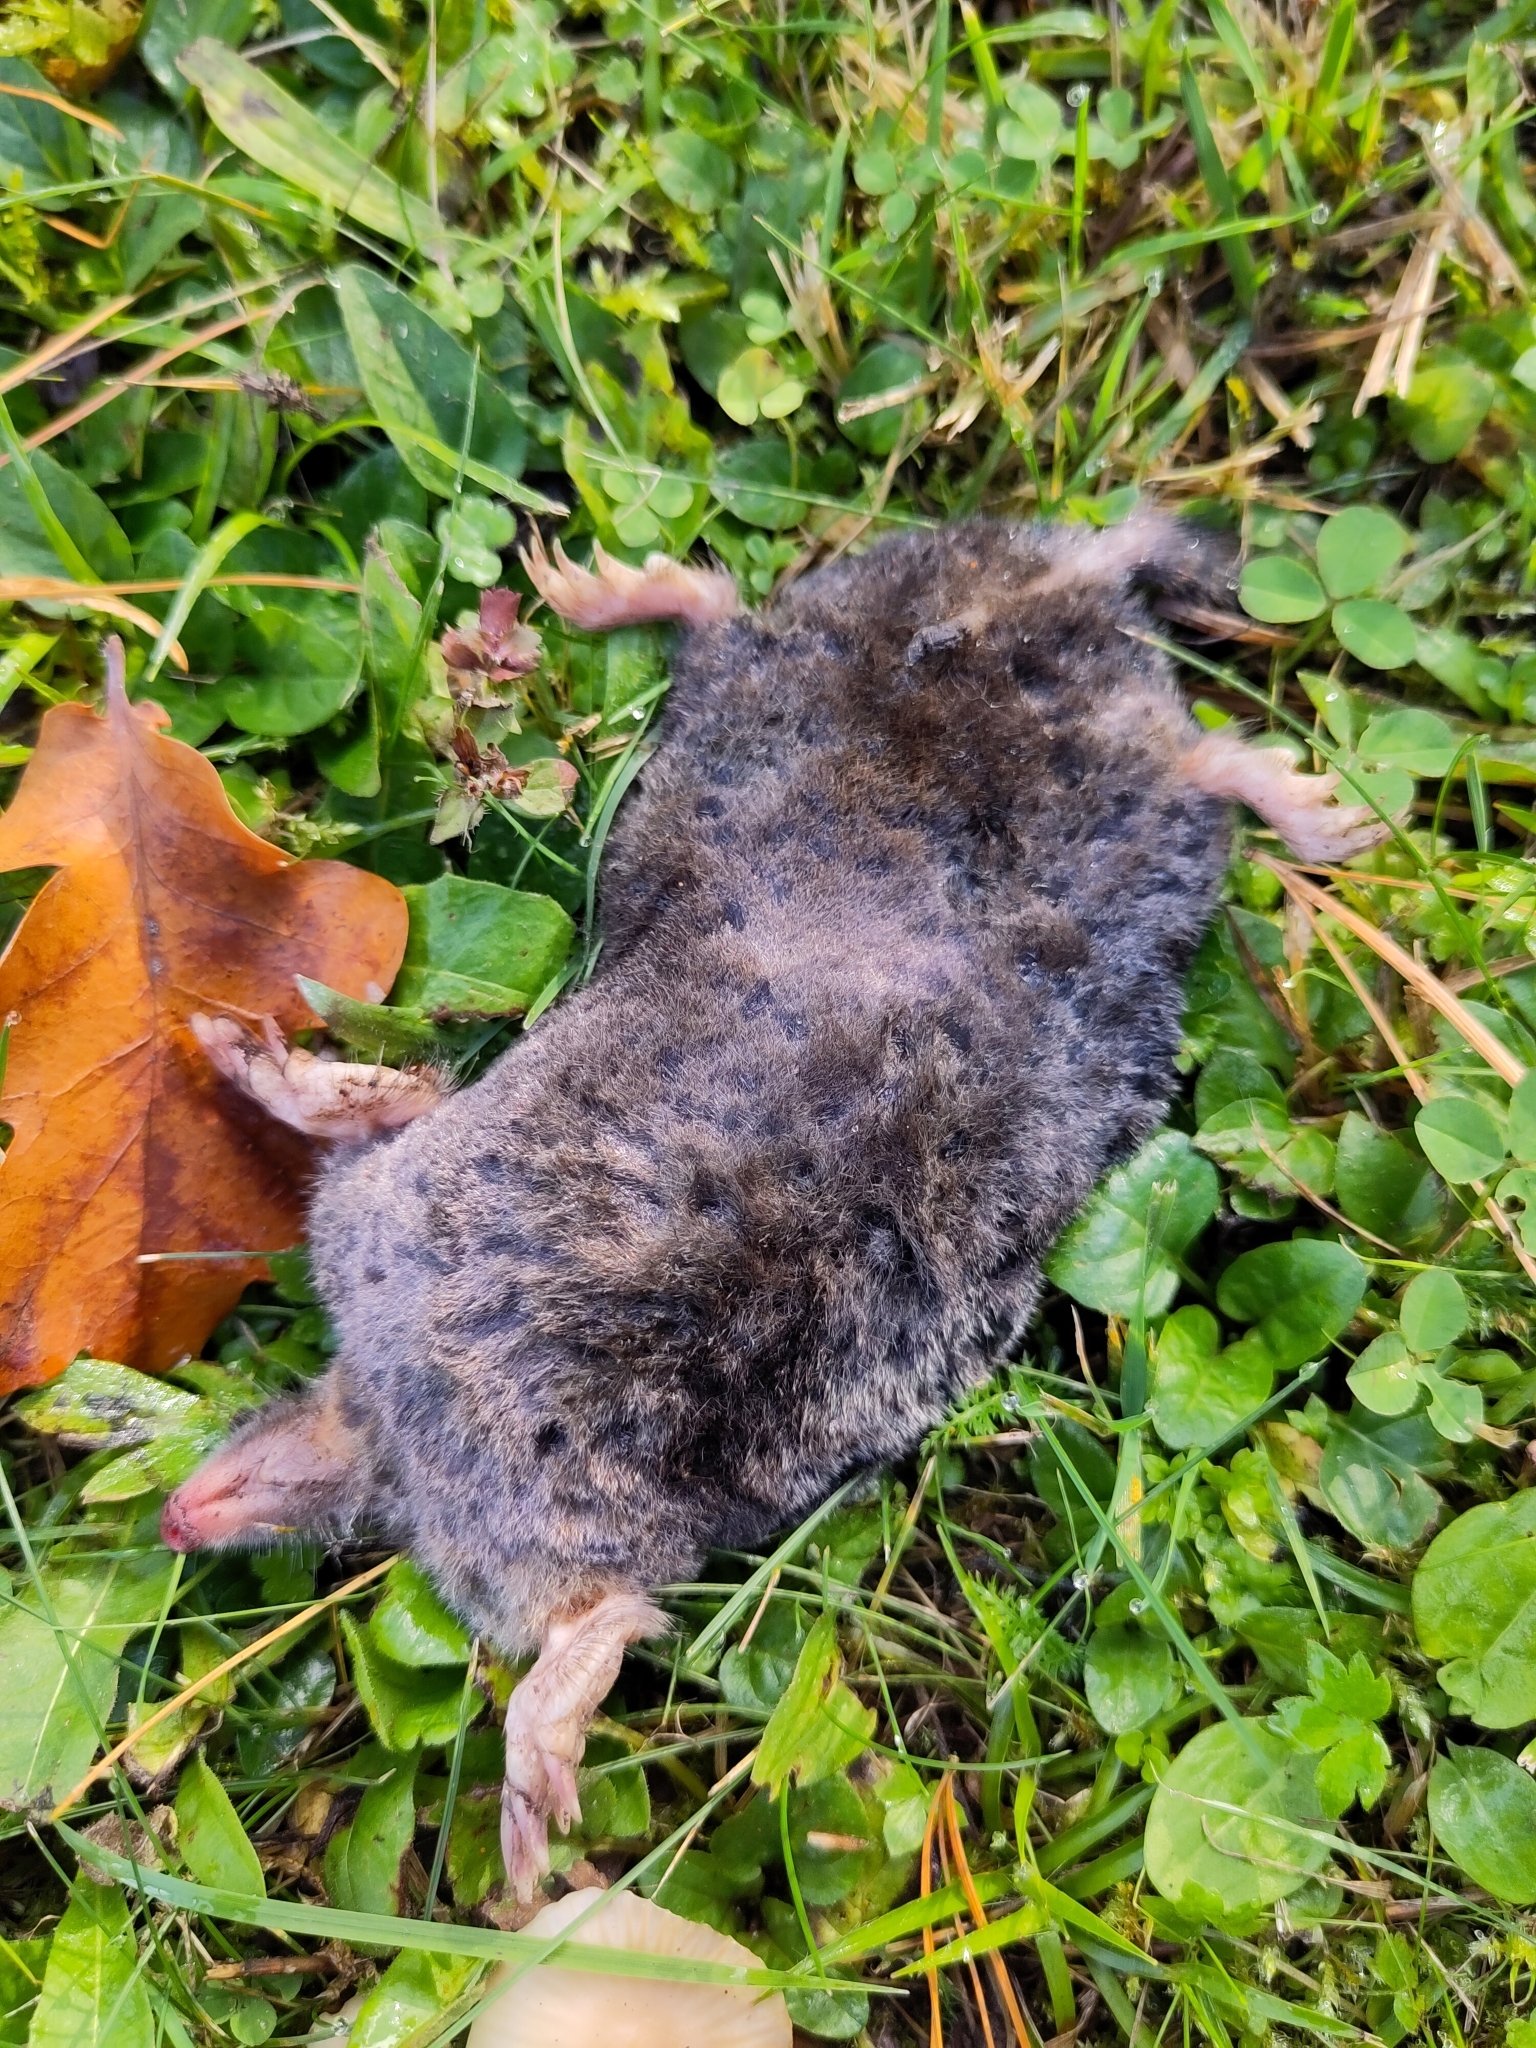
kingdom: Animalia
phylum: Chordata
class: Mammalia
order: Soricomorpha
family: Talpidae
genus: Talpa
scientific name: Talpa europaea
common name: European mole
